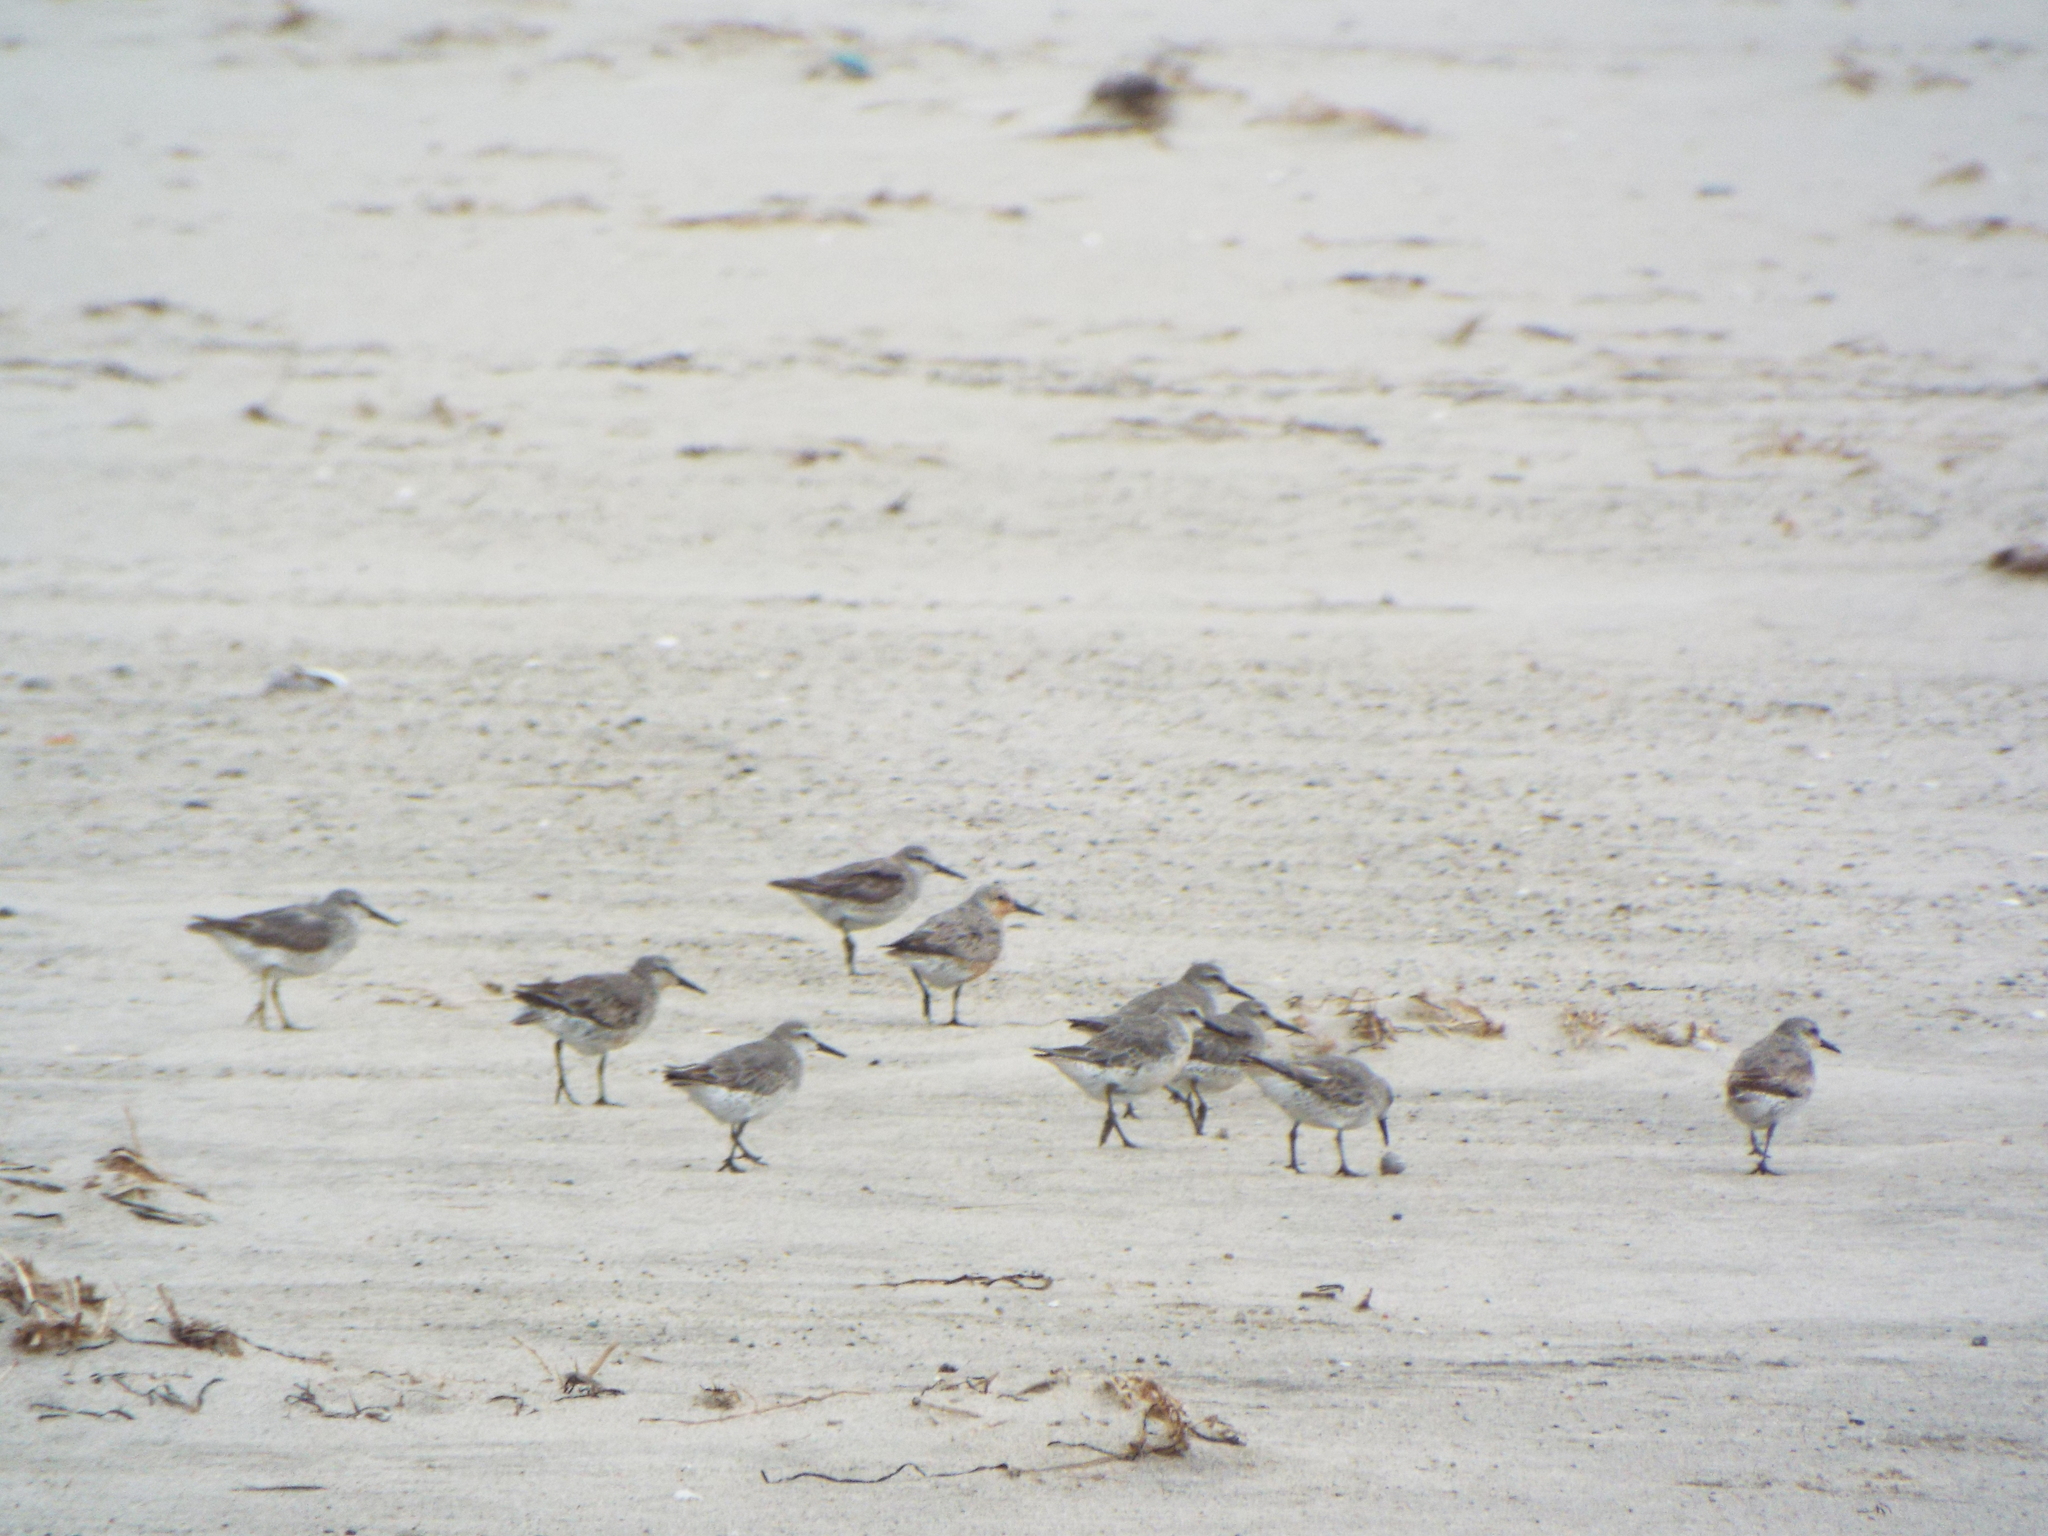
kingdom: Animalia
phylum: Chordata
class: Aves
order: Charadriiformes
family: Scolopacidae
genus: Calidris
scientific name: Calidris canutus
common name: Red knot
